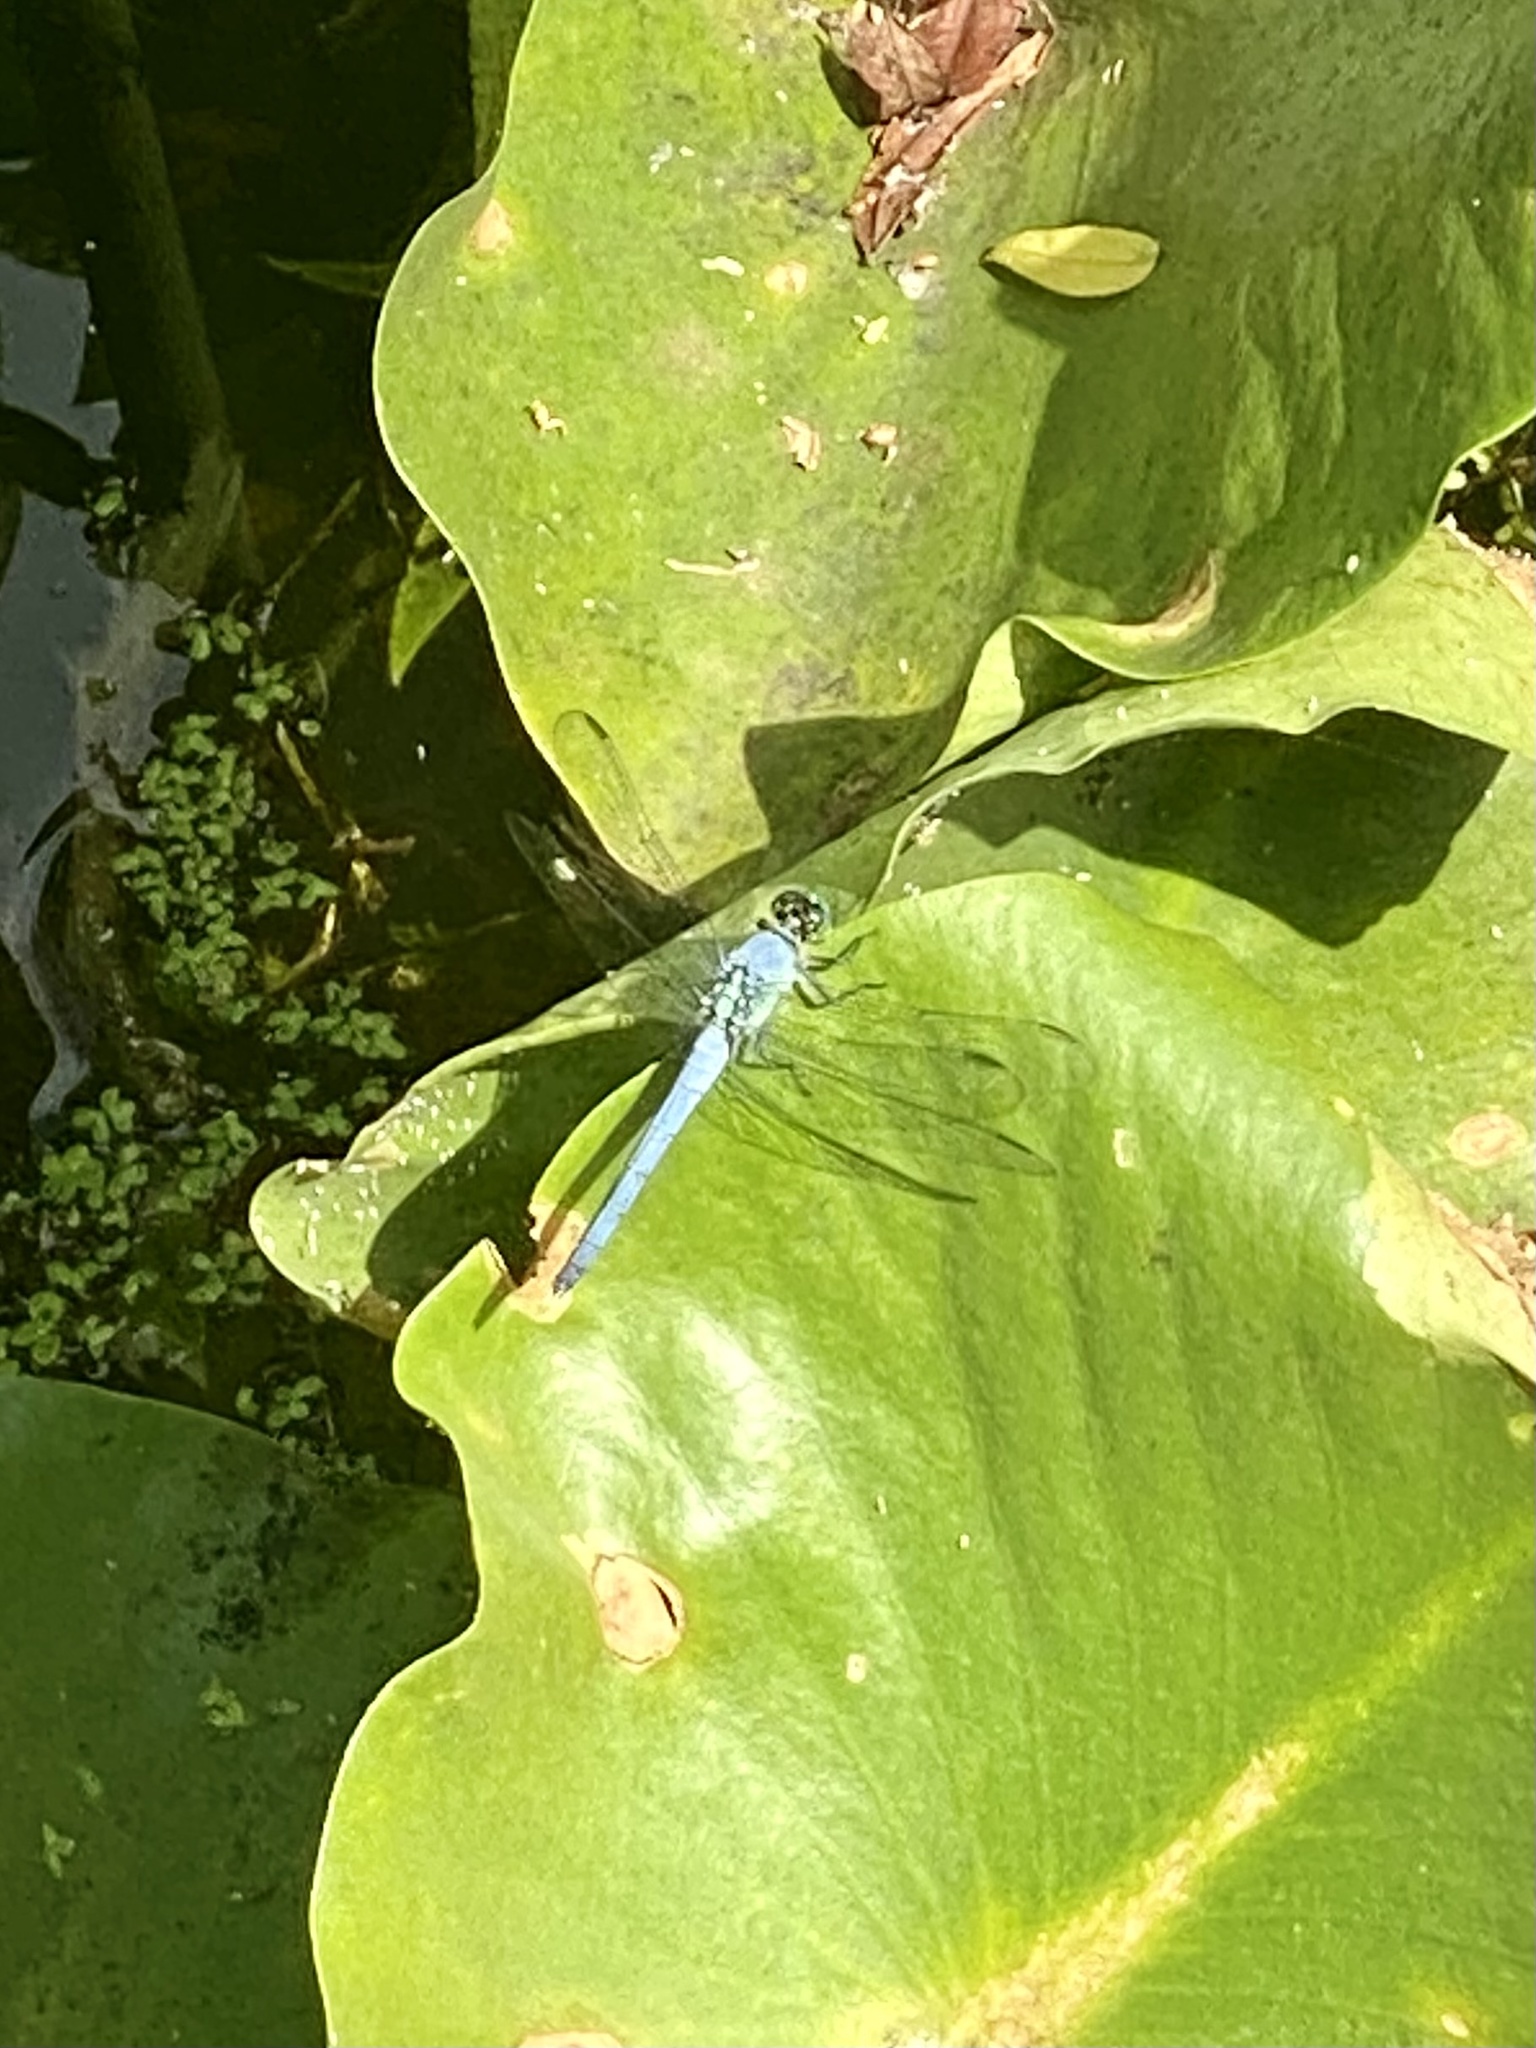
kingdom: Animalia
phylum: Arthropoda
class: Insecta
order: Odonata
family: Libellulidae
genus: Pachydiplax
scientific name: Pachydiplax longipennis
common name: Blue dasher
